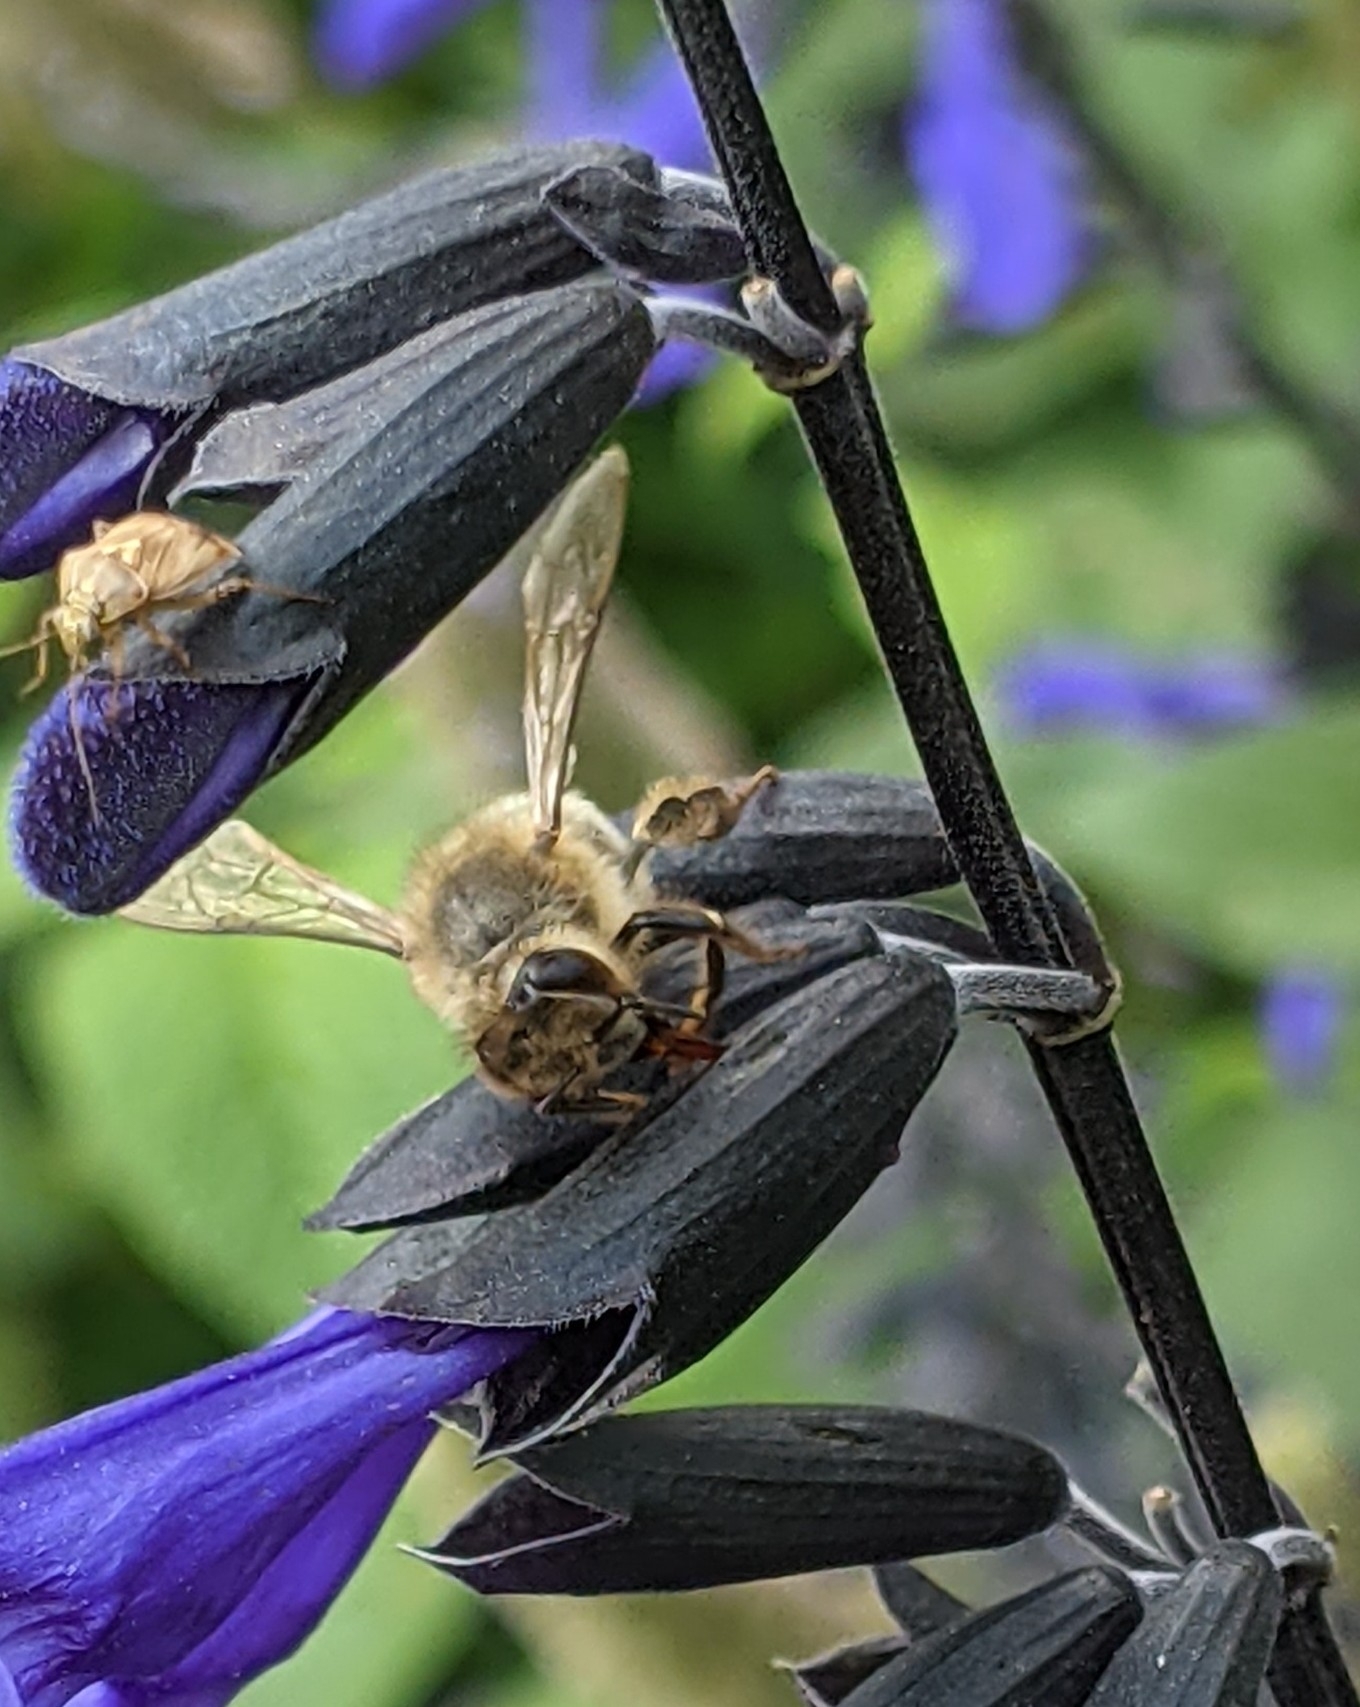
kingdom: Animalia
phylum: Arthropoda
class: Insecta
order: Hymenoptera
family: Apidae
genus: Apis
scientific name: Apis mellifera
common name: Honey bee
